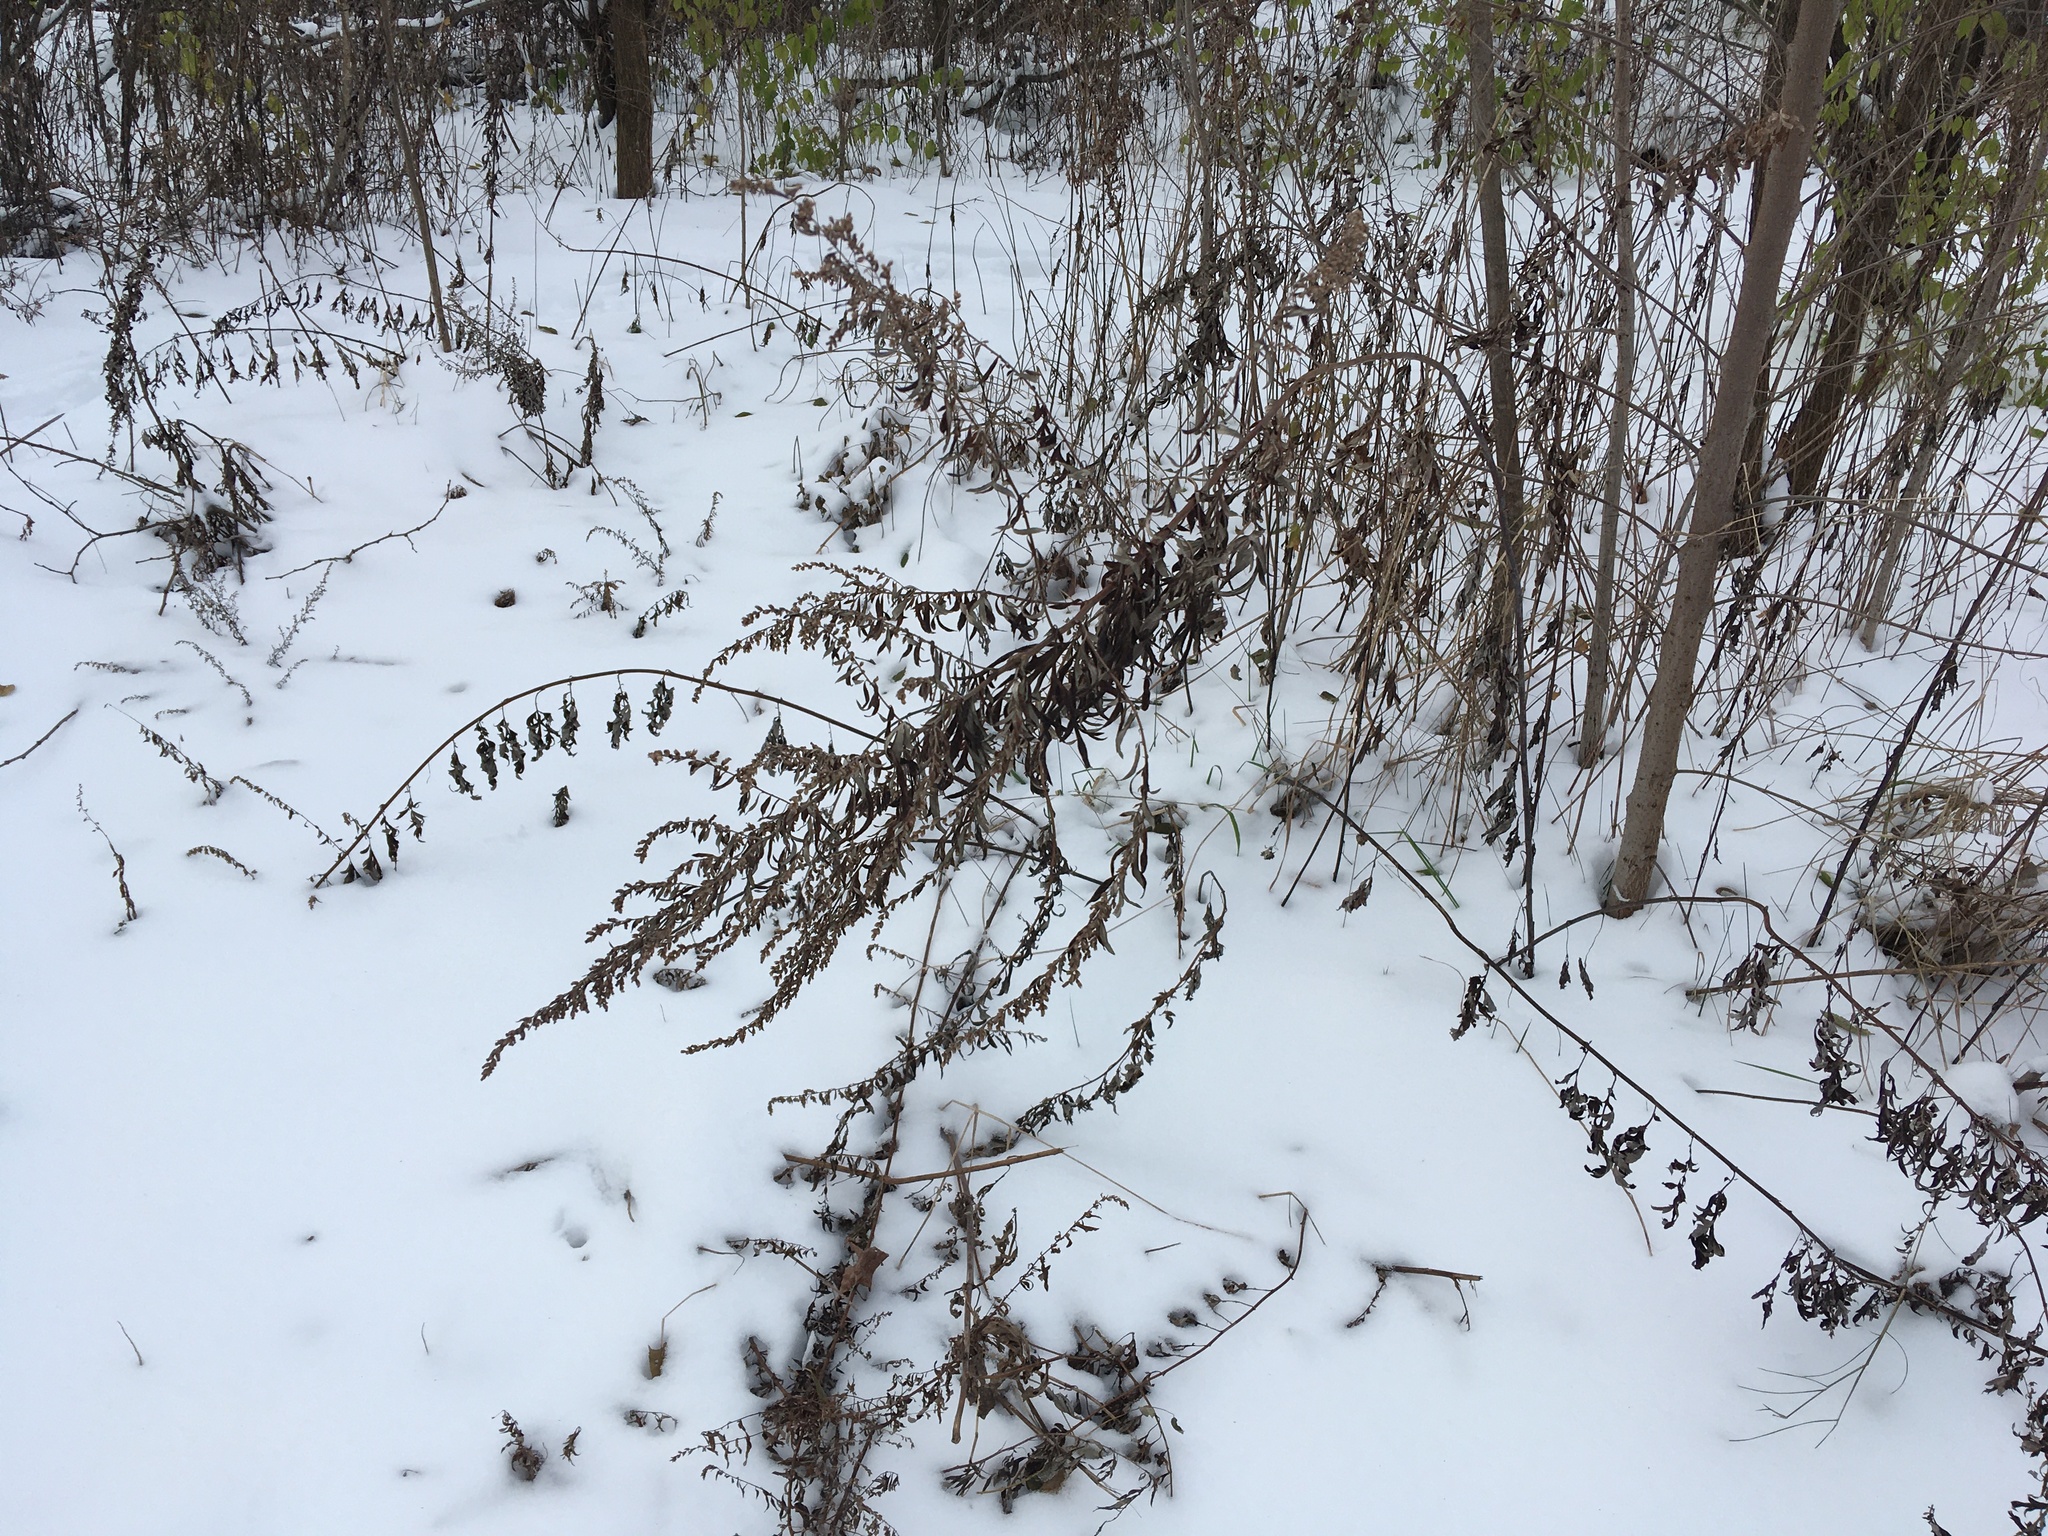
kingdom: Plantae
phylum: Tracheophyta
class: Magnoliopsida
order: Asterales
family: Asteraceae
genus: Artemisia
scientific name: Artemisia vulgaris
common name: Mugwort
